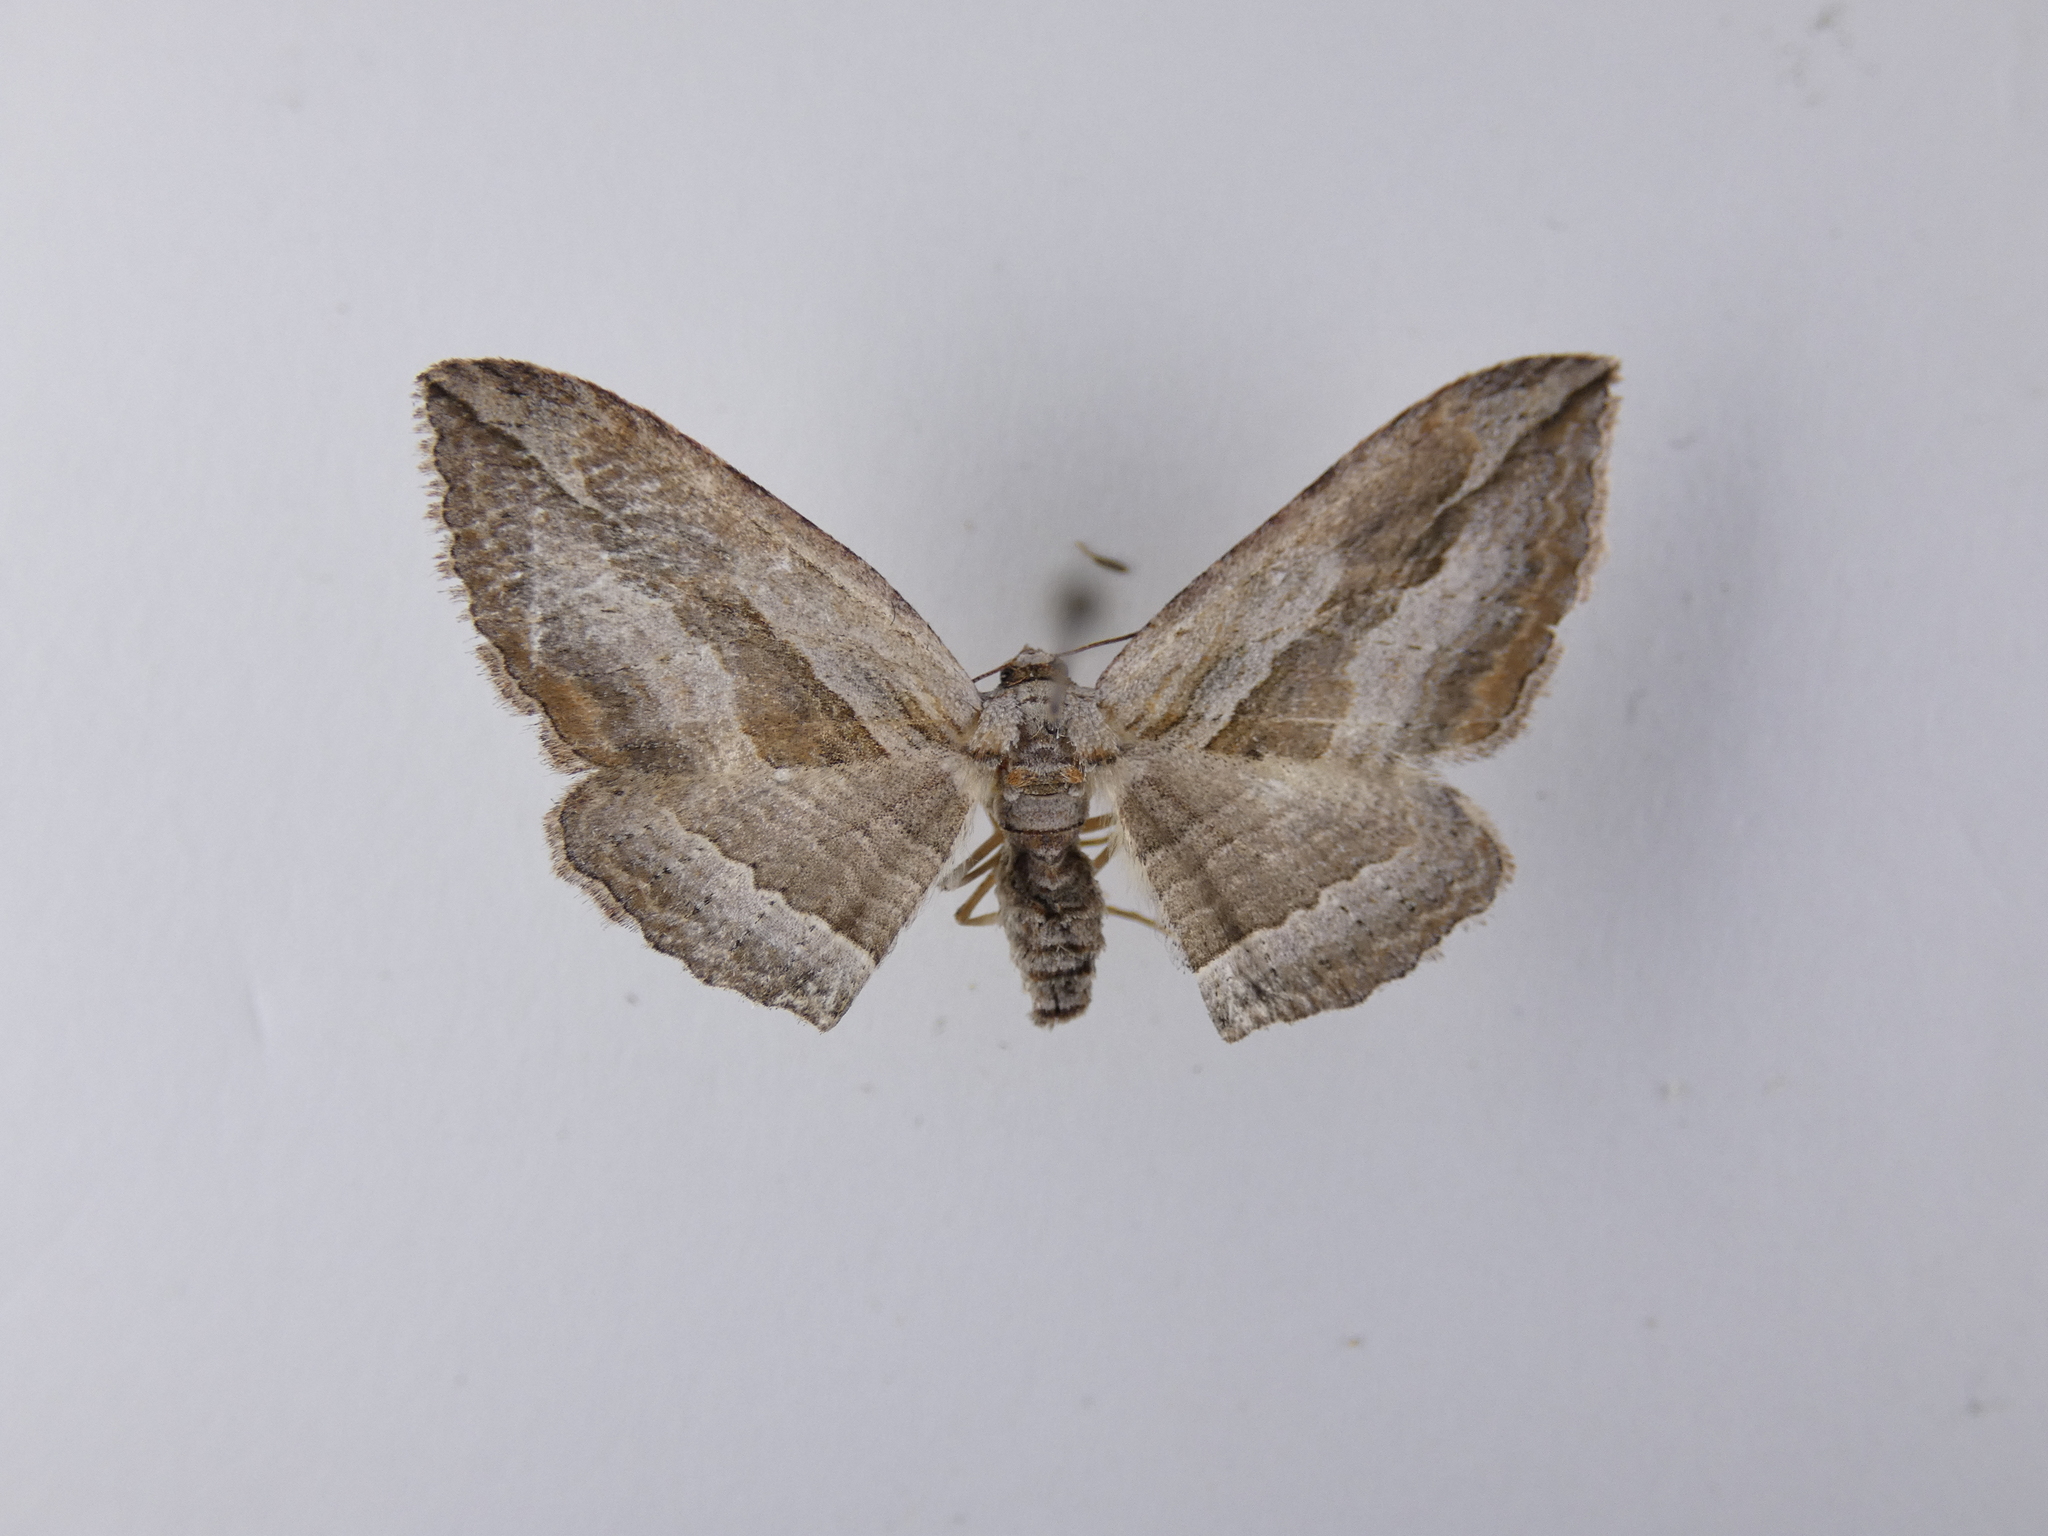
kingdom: Animalia
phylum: Arthropoda
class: Insecta
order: Lepidoptera
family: Geometridae
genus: Austrocidaria
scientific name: Austrocidaria gobiata
